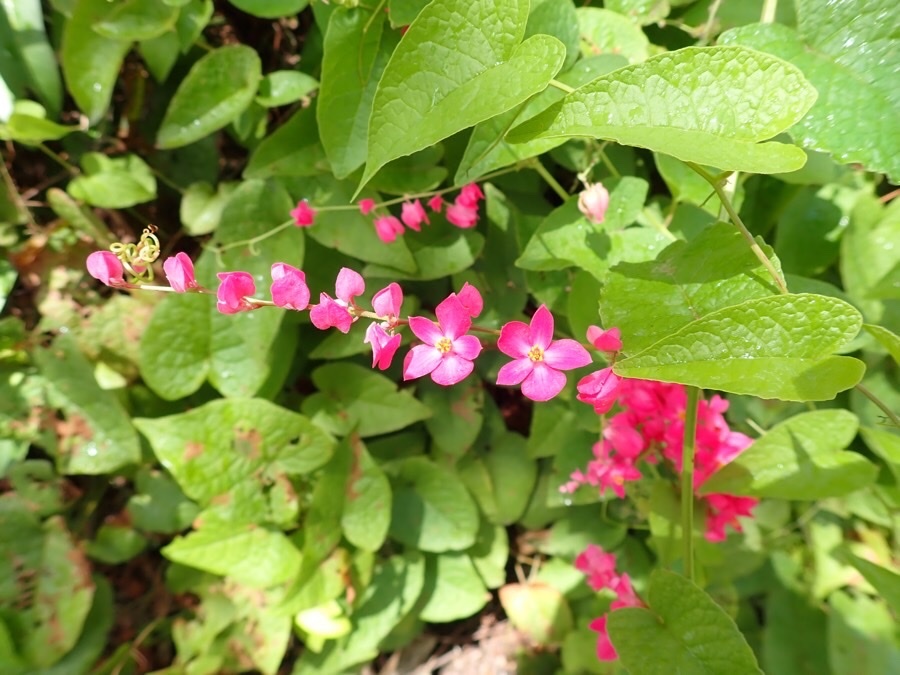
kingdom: Plantae
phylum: Tracheophyta
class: Magnoliopsida
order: Caryophyllales
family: Polygonaceae
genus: Antigonon
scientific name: Antigonon leptopus
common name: Coral vine
